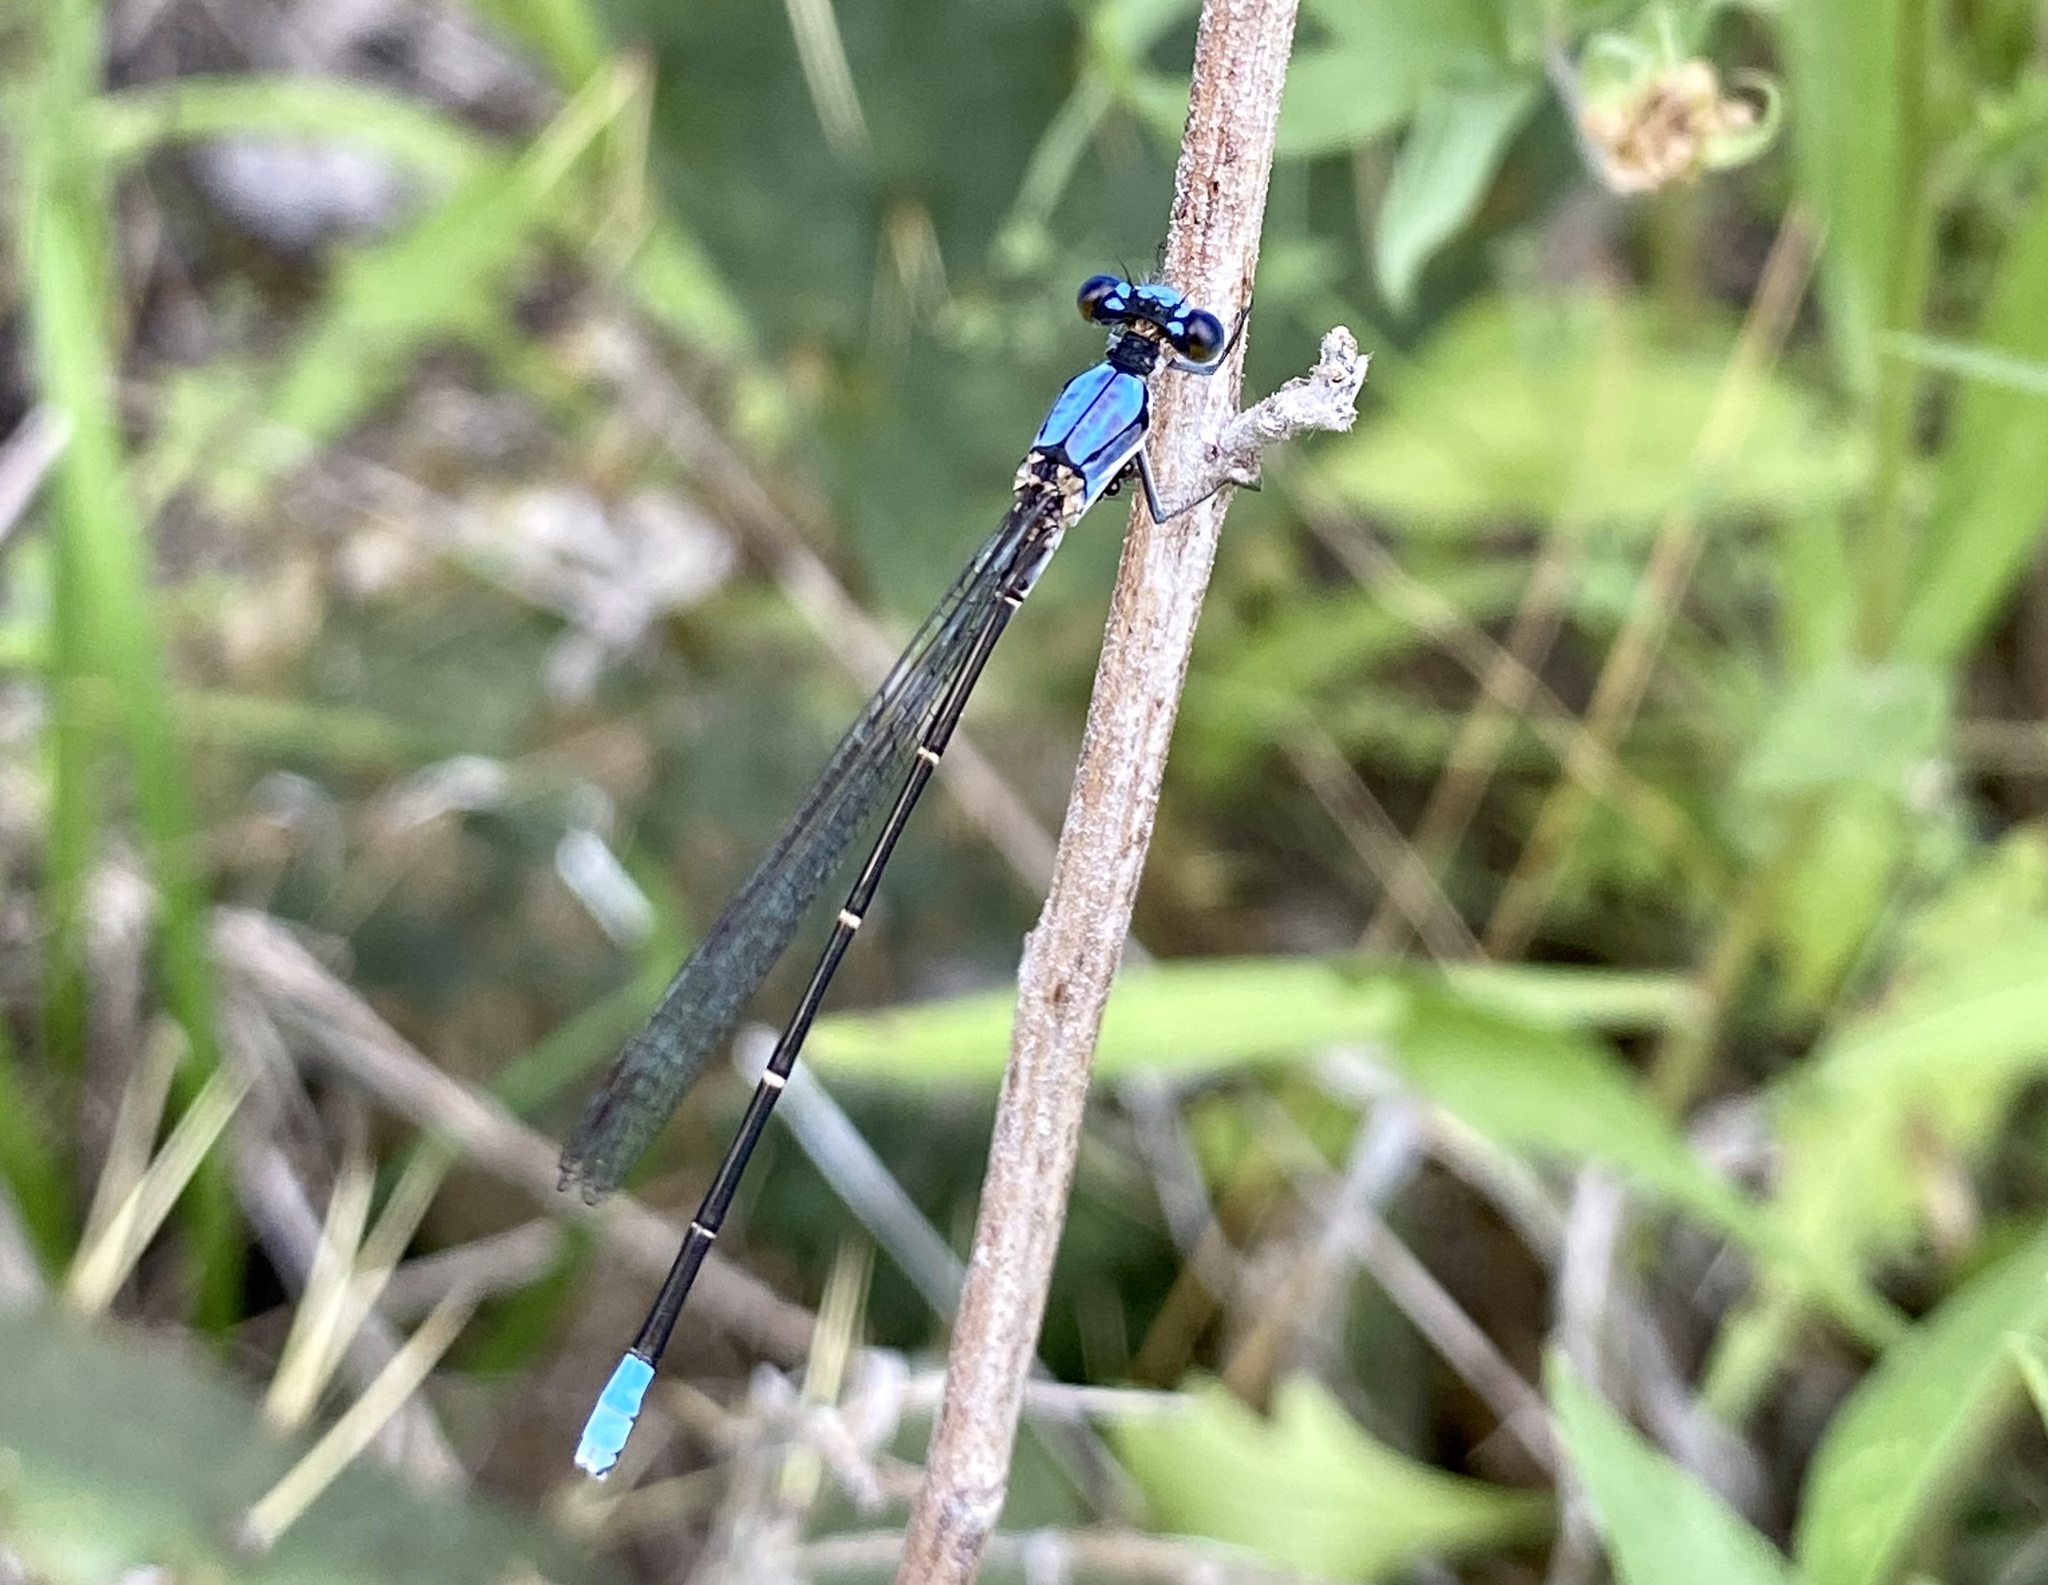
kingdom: Animalia
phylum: Arthropoda
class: Insecta
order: Odonata
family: Coenagrionidae
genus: Argia
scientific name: Argia apicalis
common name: Blue-fronted dancer
